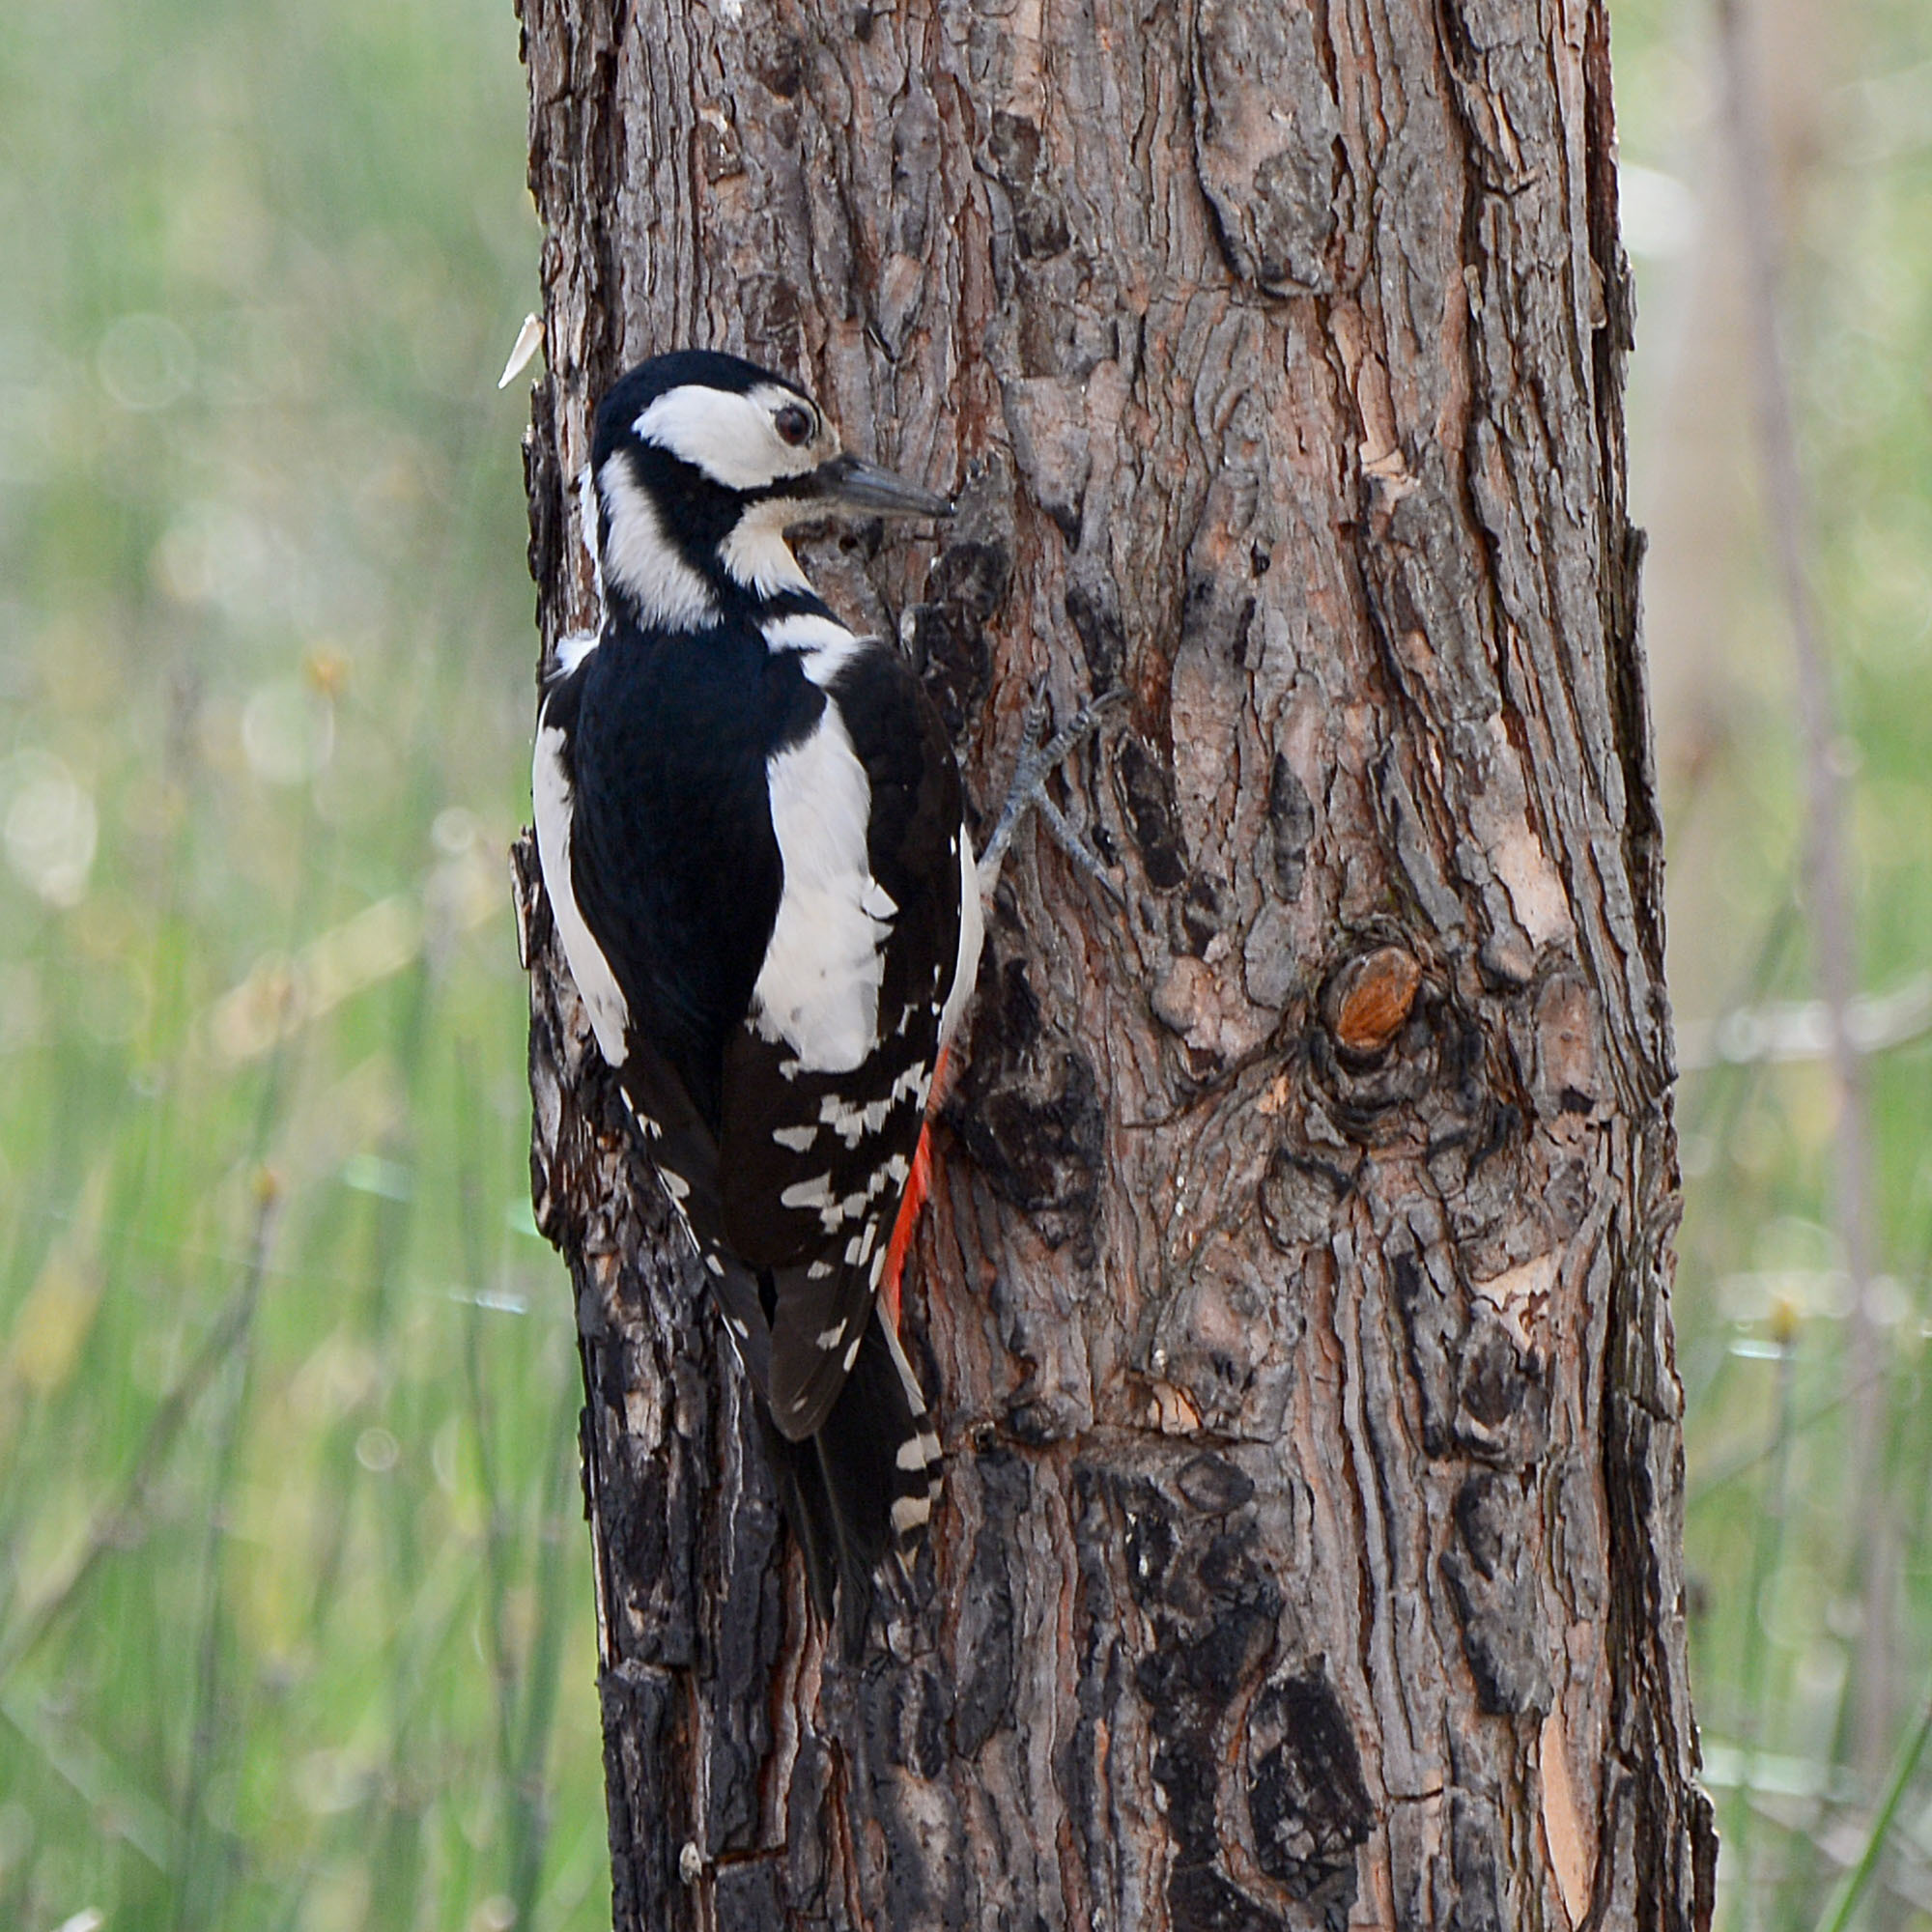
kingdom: Animalia
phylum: Chordata
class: Aves
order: Piciformes
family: Picidae
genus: Dendrocopos
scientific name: Dendrocopos major
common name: Great spotted woodpecker
